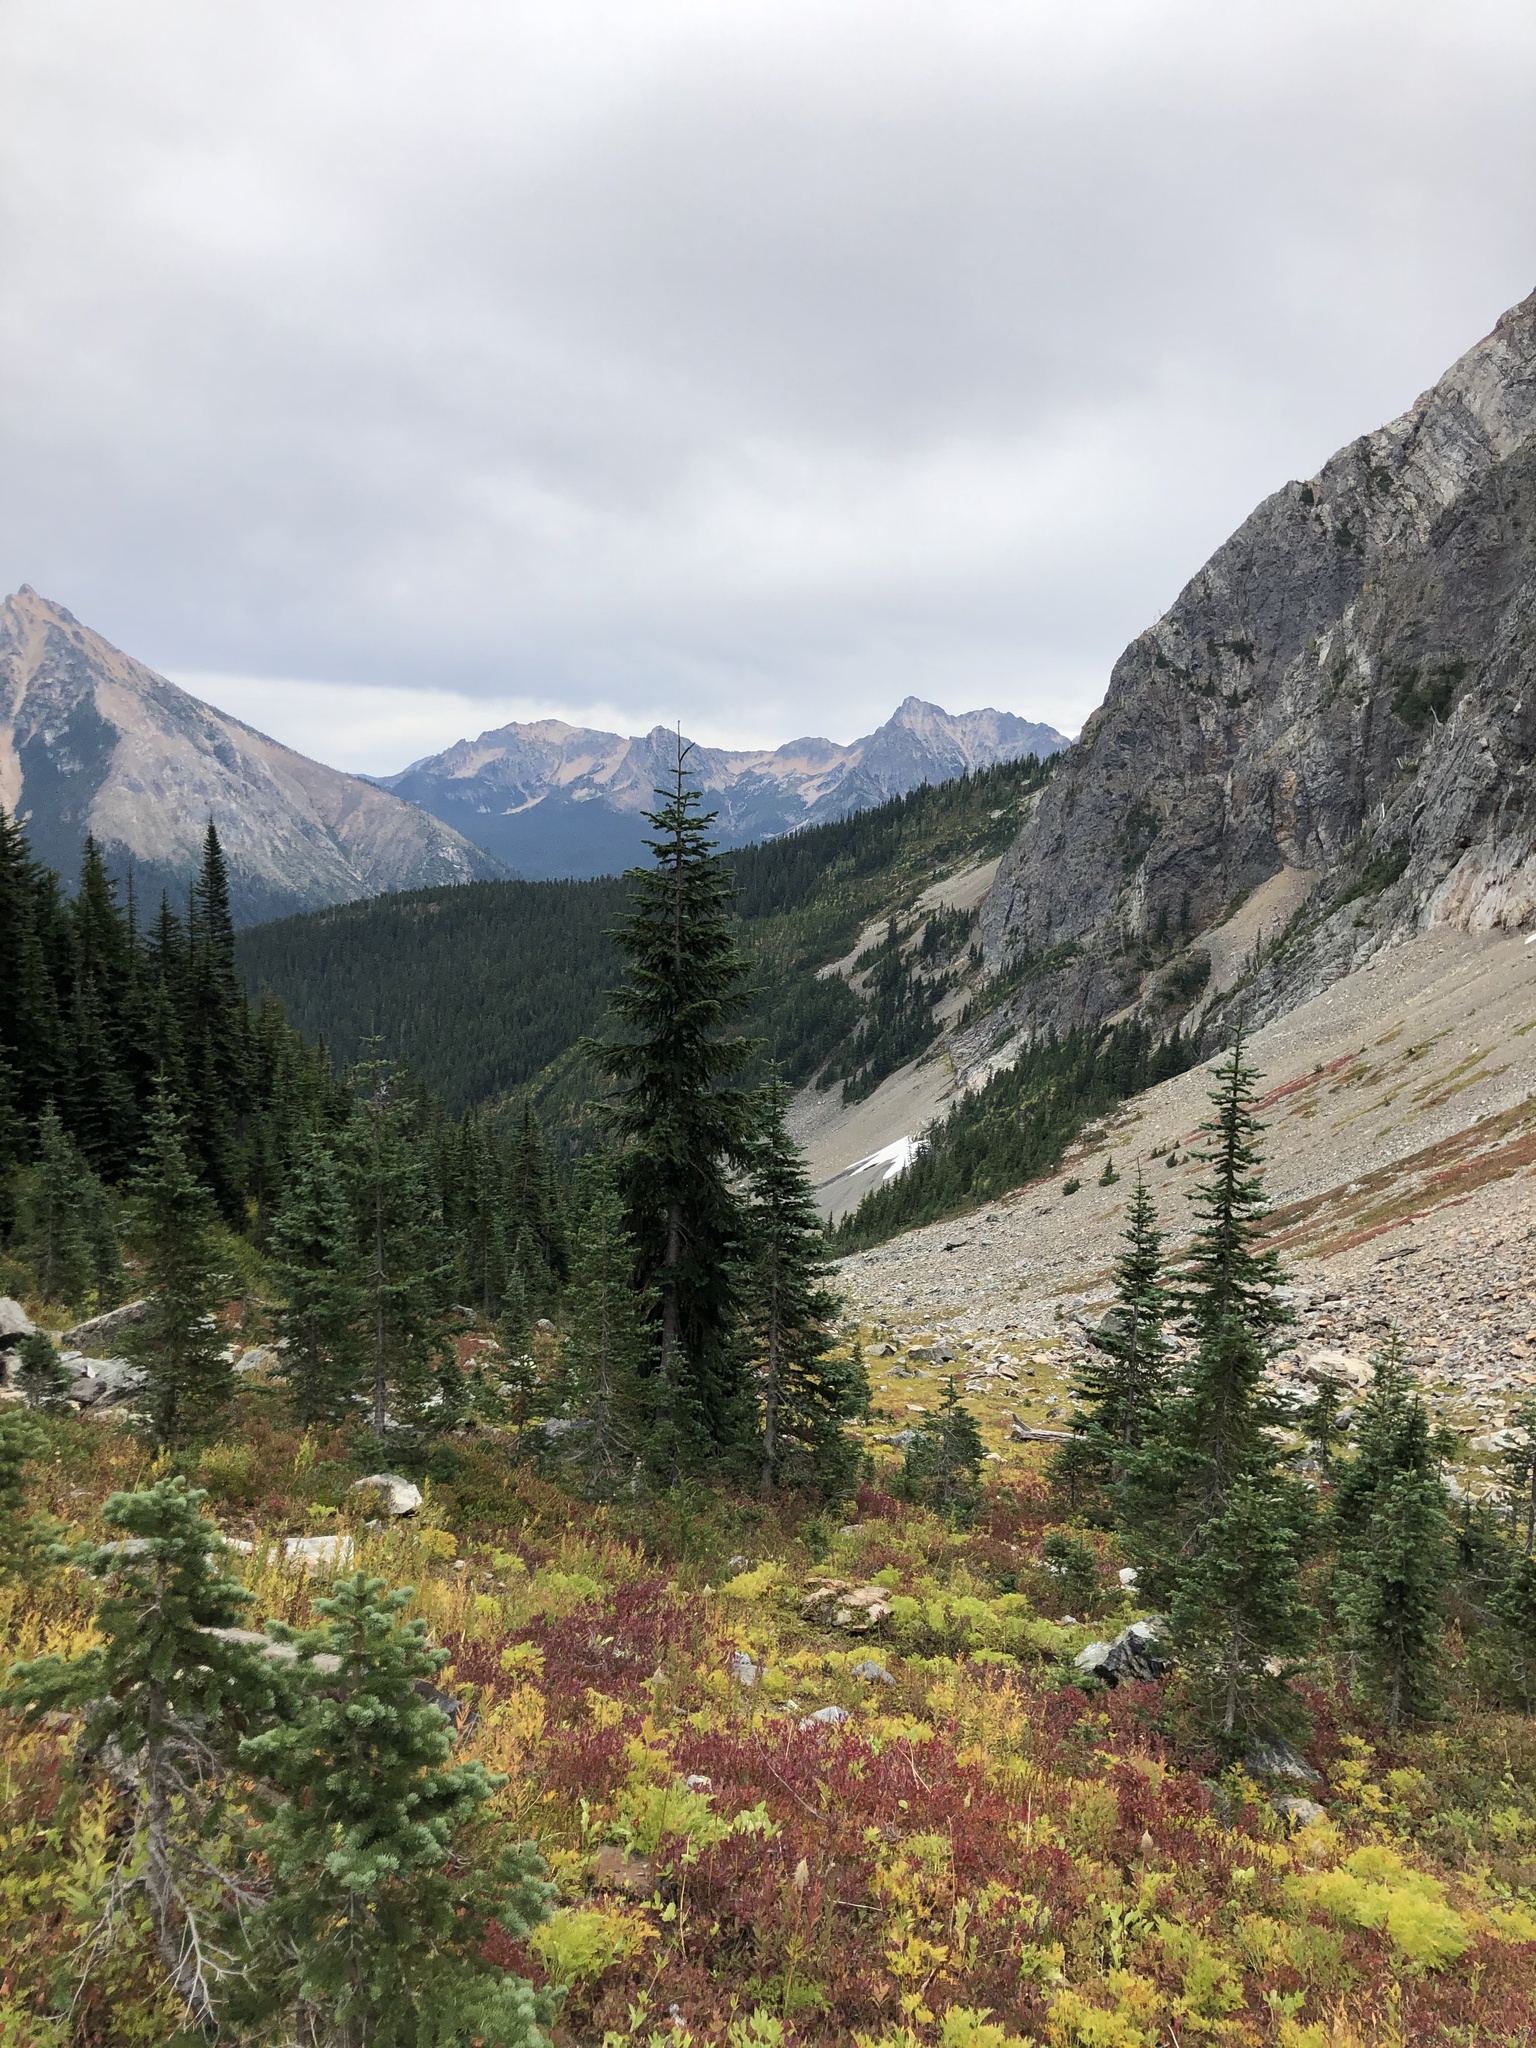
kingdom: Plantae
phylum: Tracheophyta
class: Pinopsida
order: Pinales
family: Pinaceae
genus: Abies
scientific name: Abies lasiocarpa
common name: Subalpine fir
